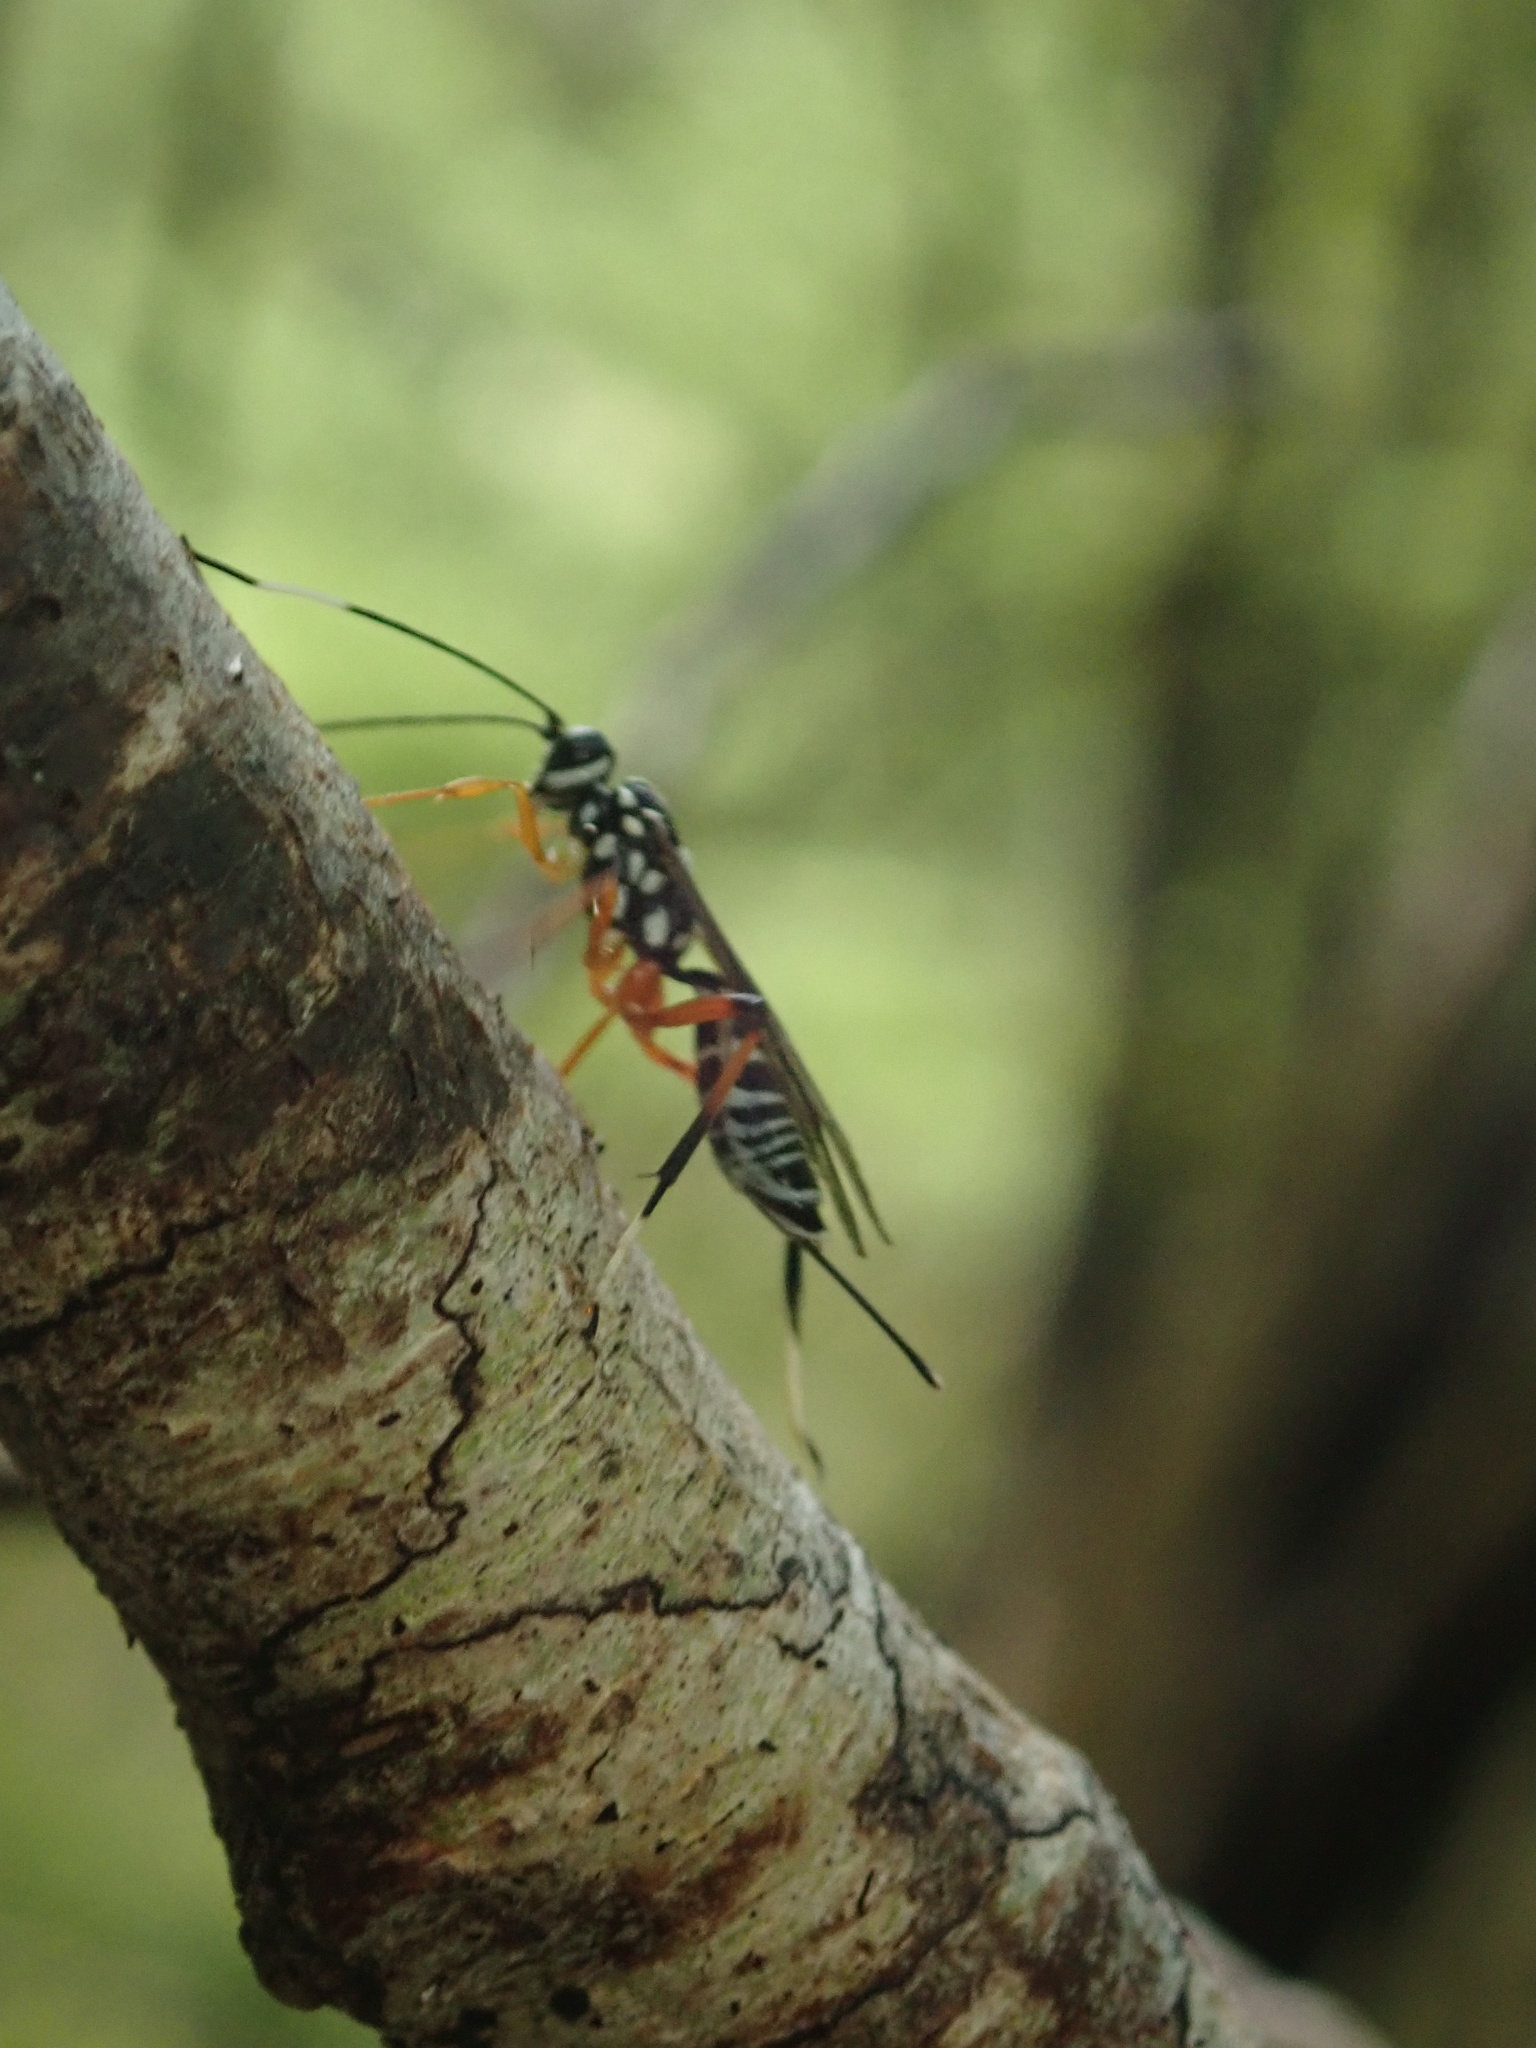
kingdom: Animalia
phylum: Arthropoda
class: Insecta
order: Hymenoptera
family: Ichneumonidae
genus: Xanthocryptus
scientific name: Xanthocryptus novozealandicus
